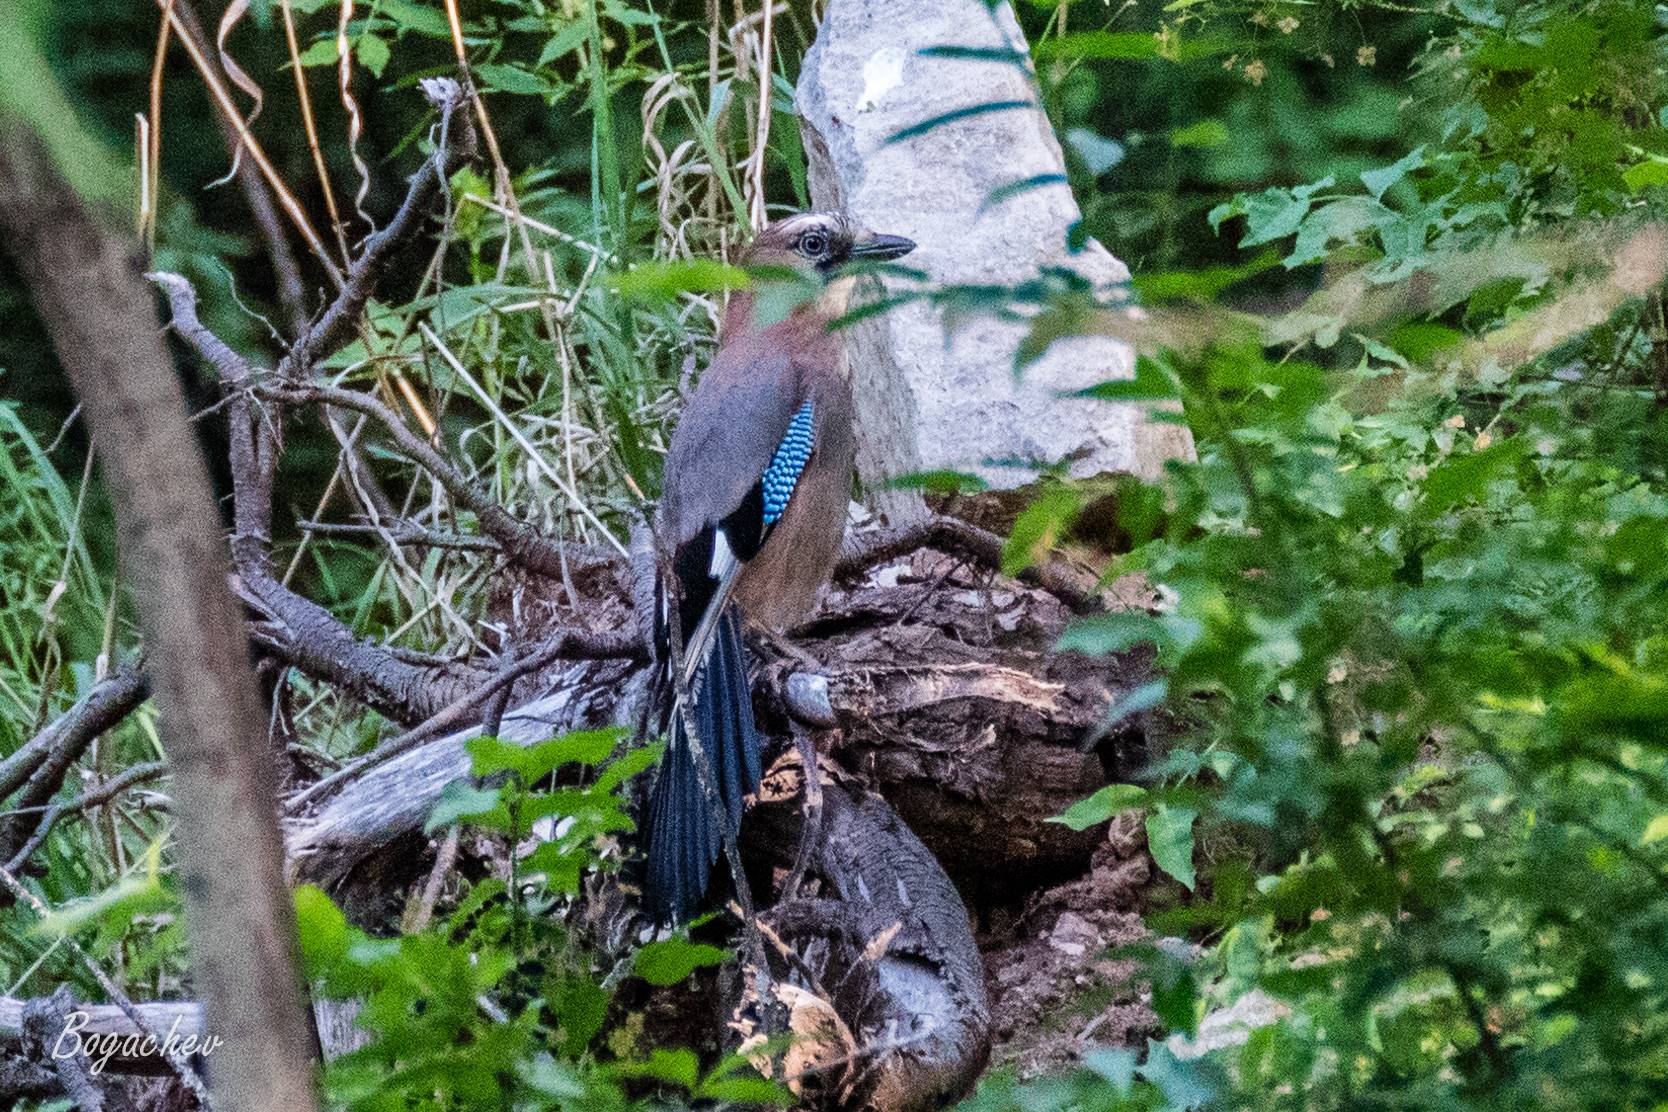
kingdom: Animalia
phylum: Chordata
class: Aves
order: Passeriformes
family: Corvidae
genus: Garrulus
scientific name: Garrulus glandarius
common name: Eurasian jay
